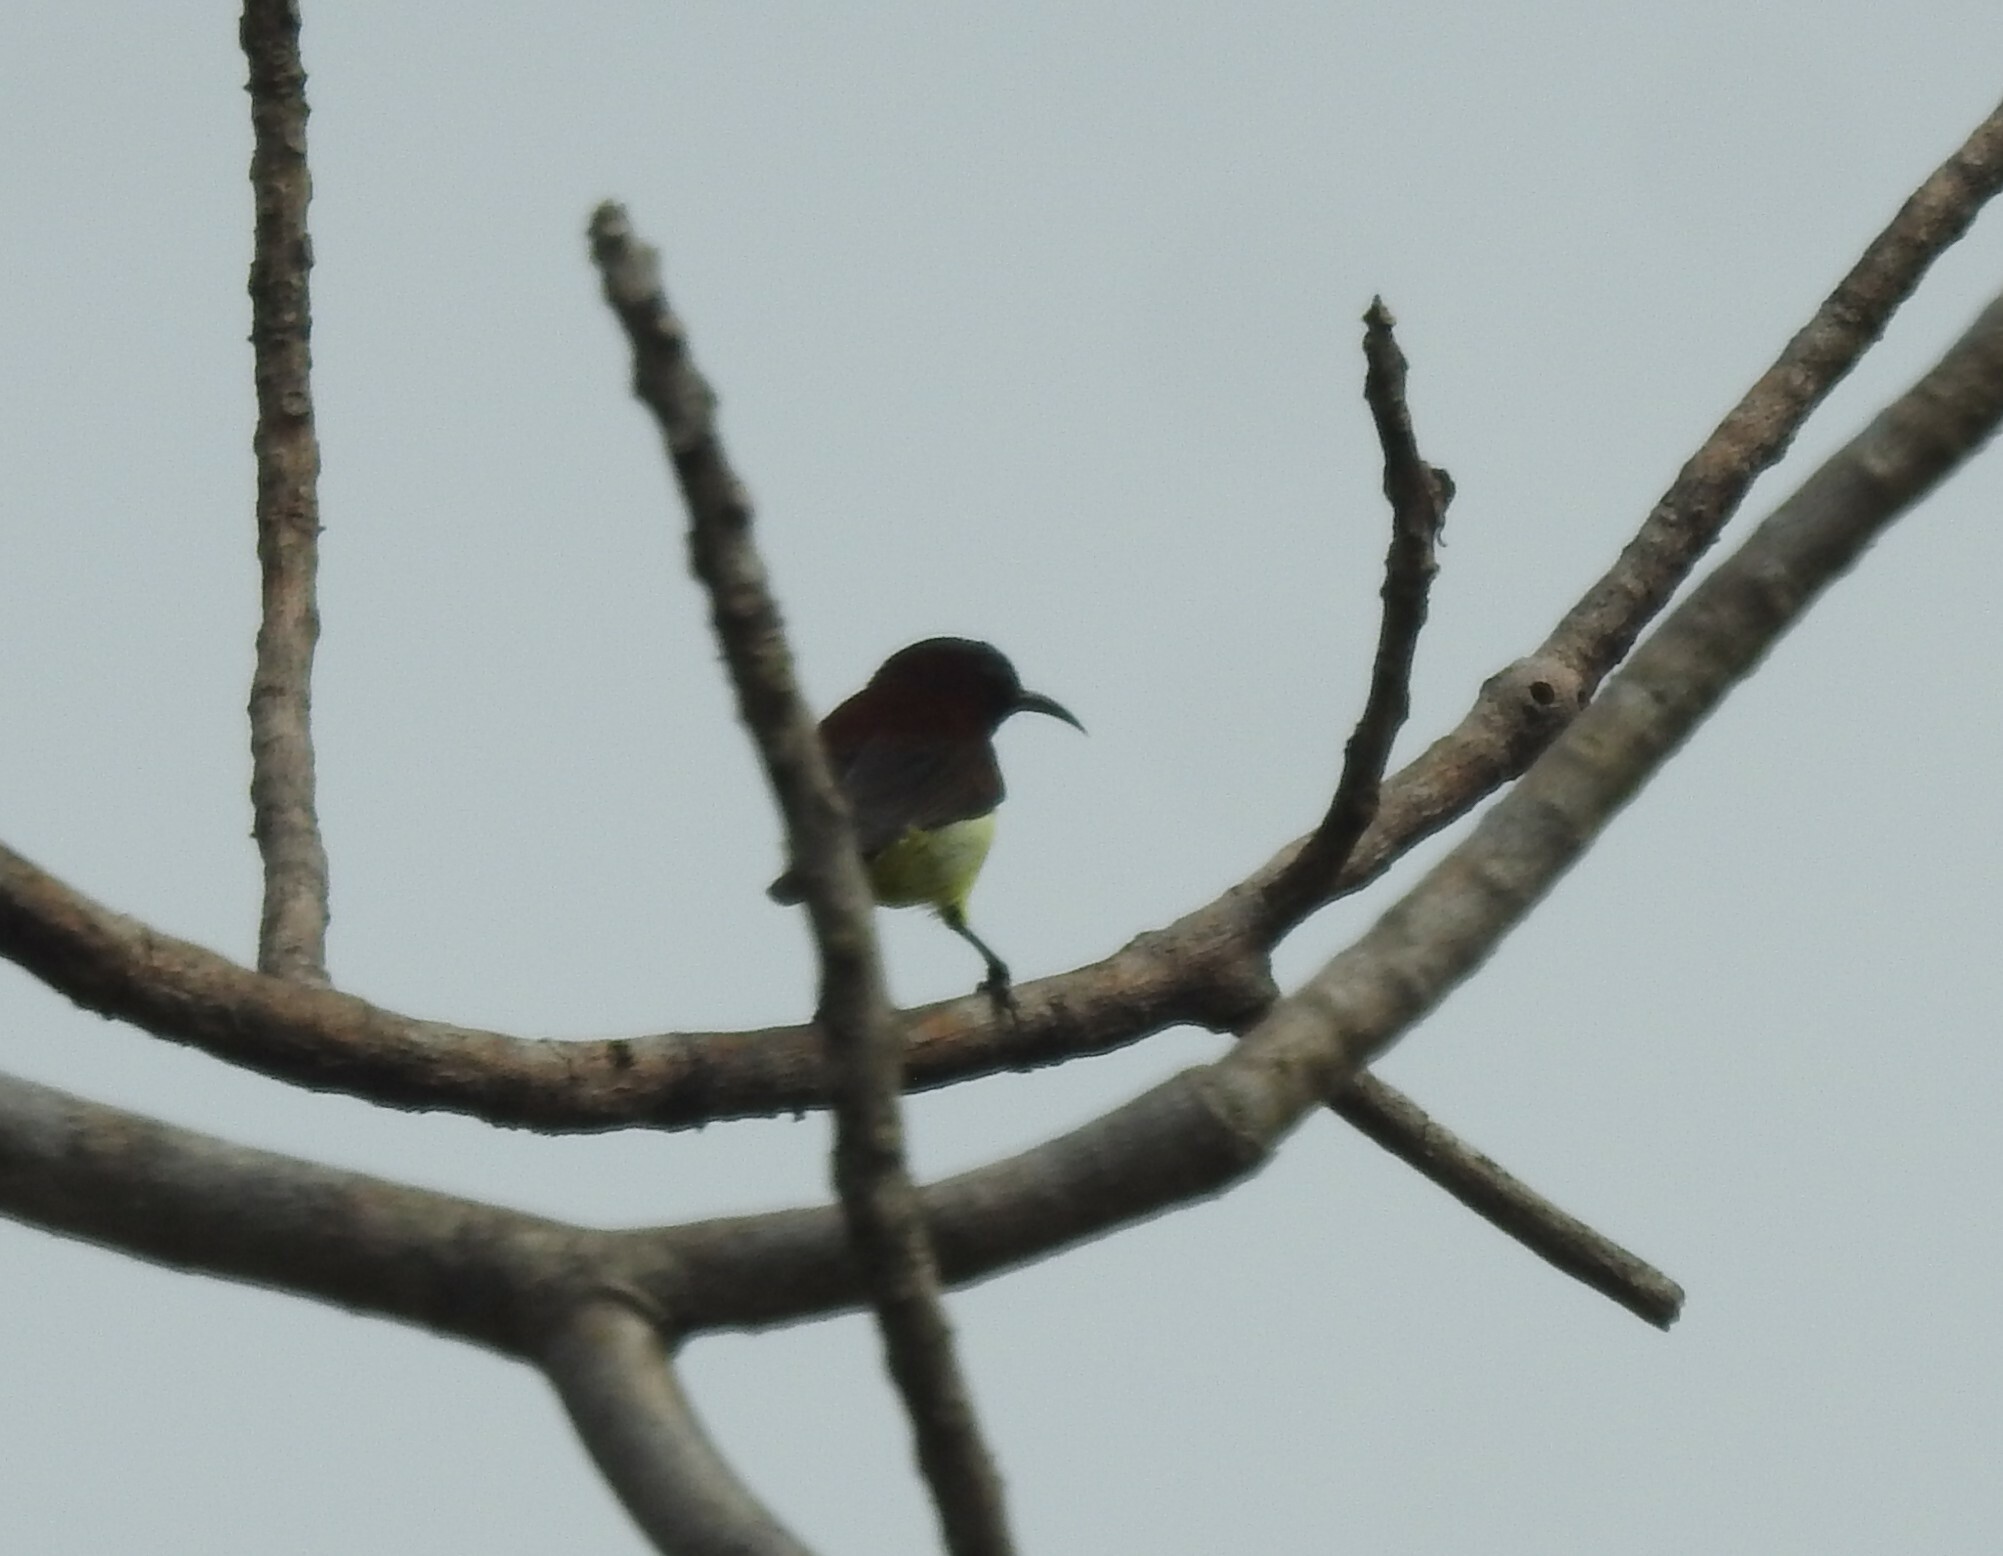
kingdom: Animalia
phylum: Chordata
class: Aves
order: Passeriformes
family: Nectariniidae
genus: Leptocoma
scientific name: Leptocoma zeylonica
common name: Purple-rumped sunbird
